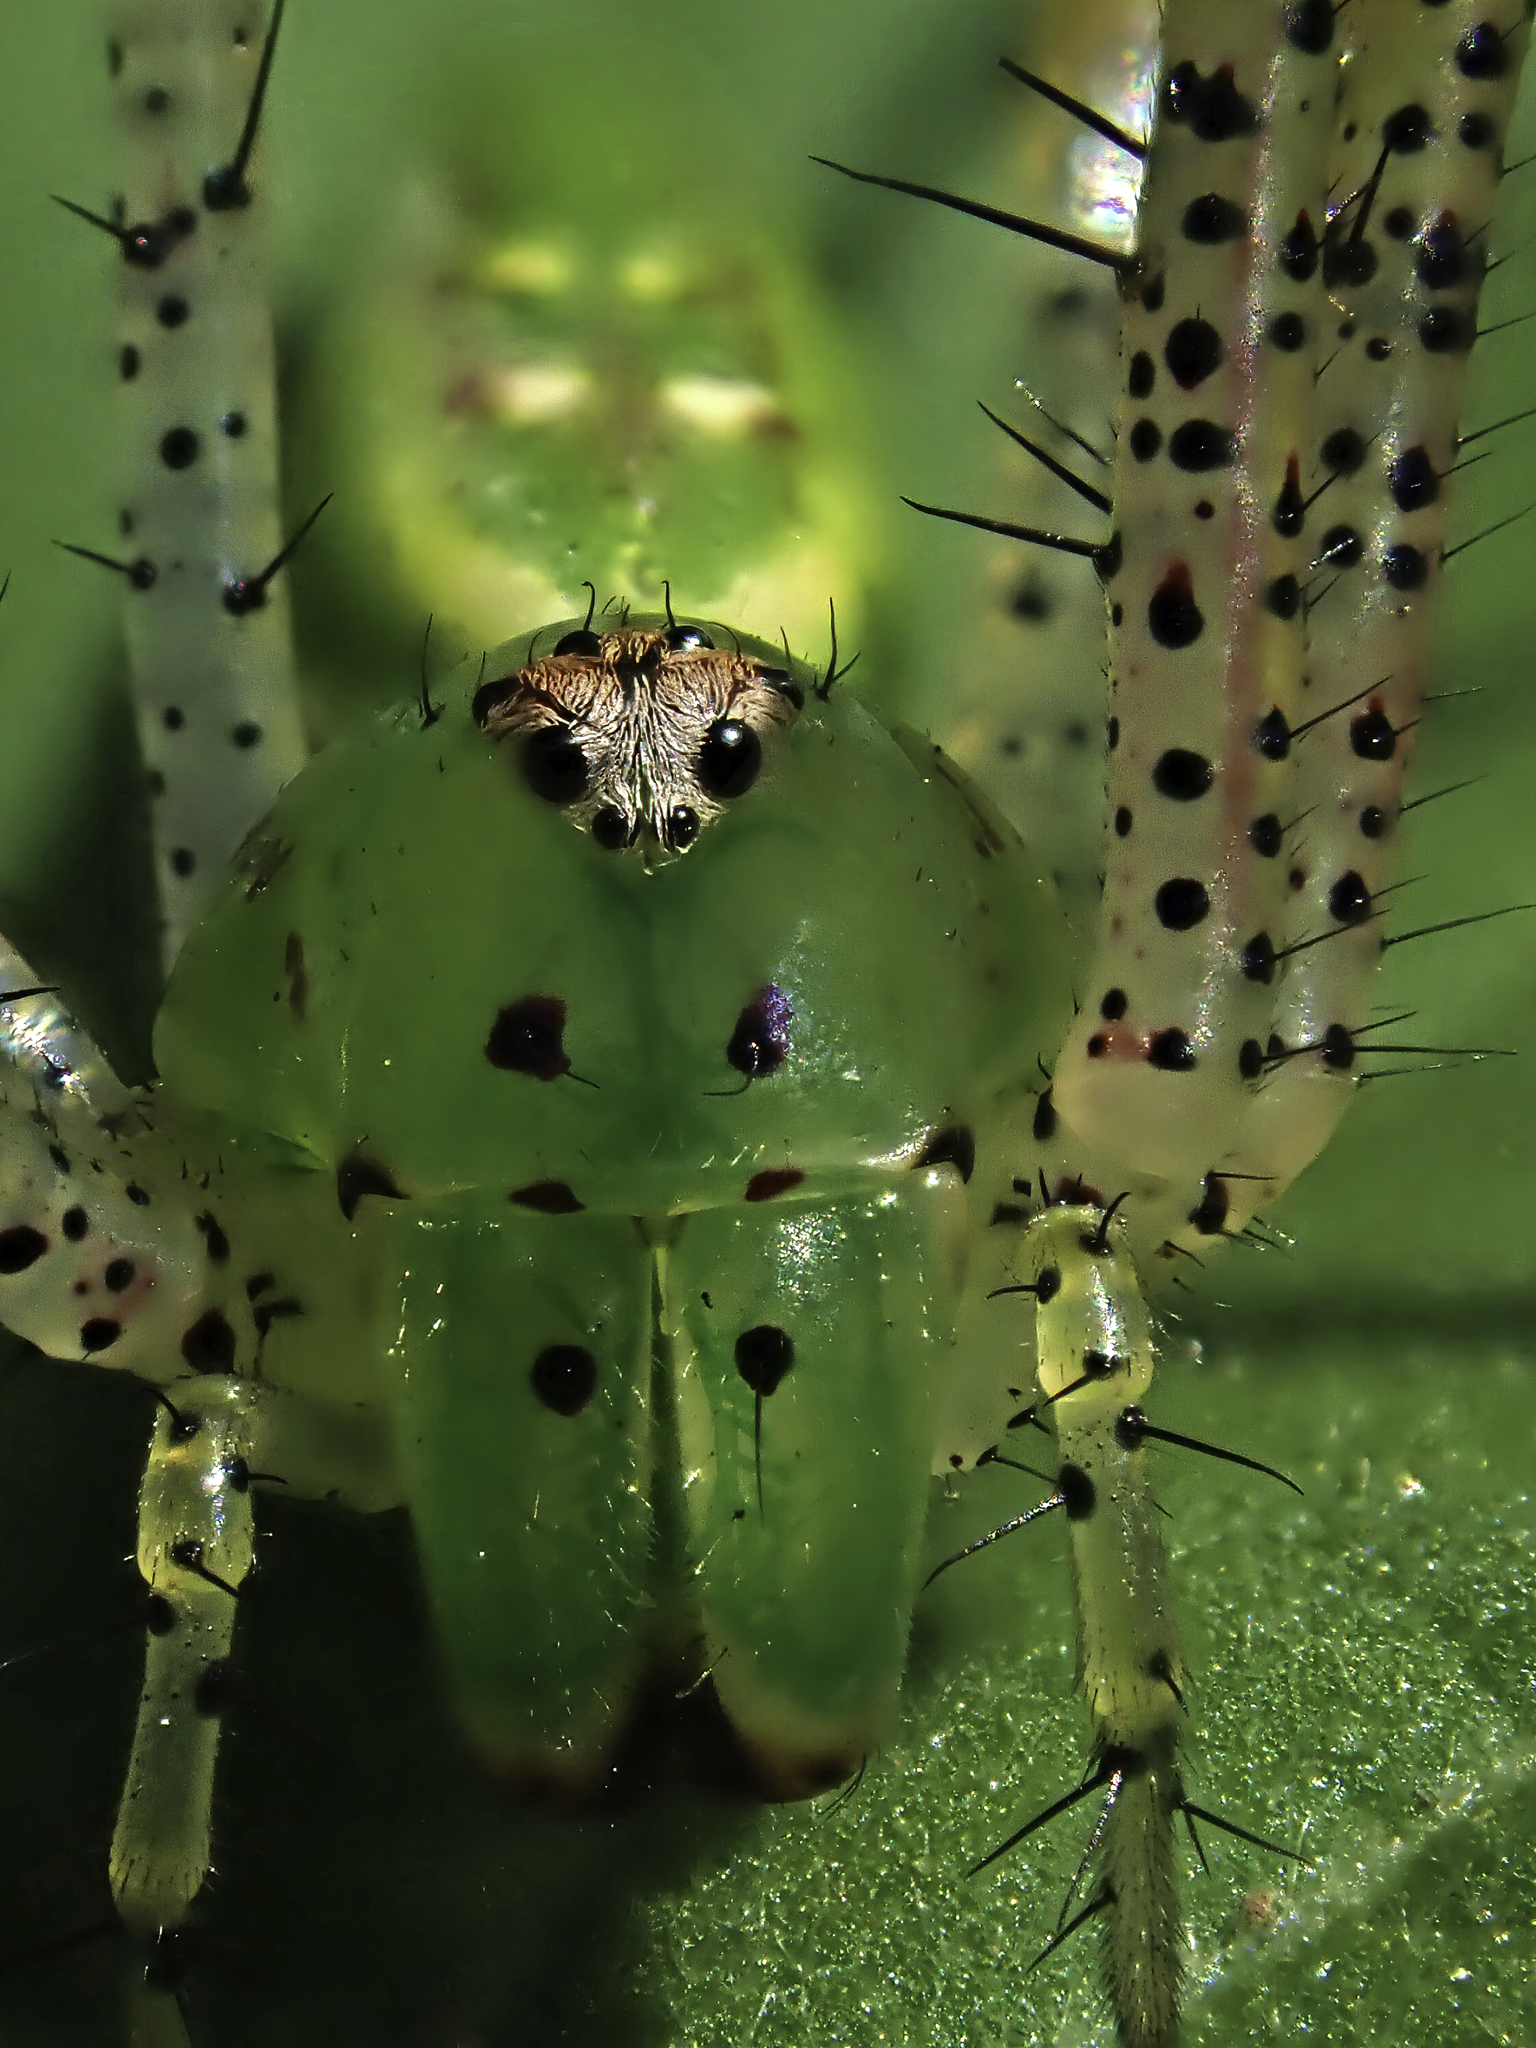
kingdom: Animalia
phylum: Arthropoda
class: Arachnida
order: Araneae
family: Oxyopidae
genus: Peucetia
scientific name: Peucetia viridans
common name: Lynx spiders
